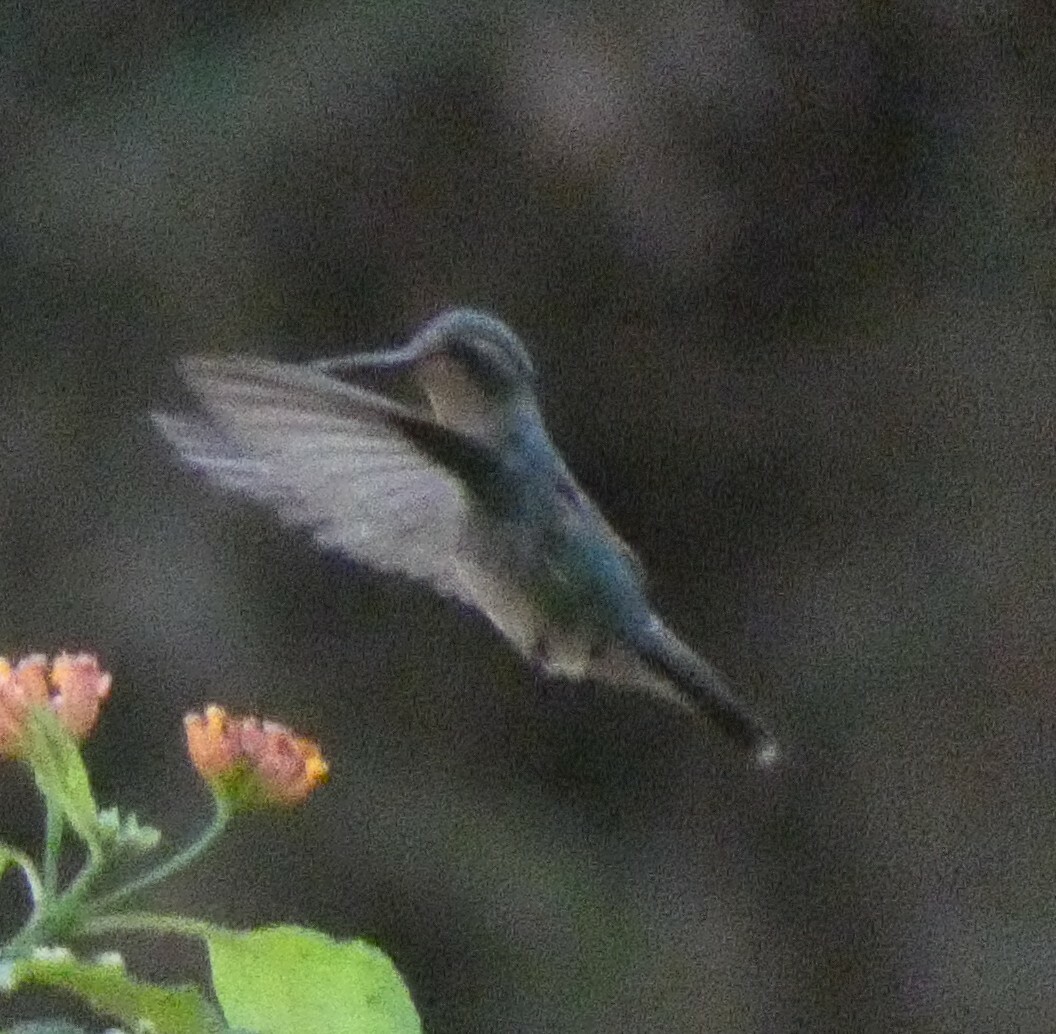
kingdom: Animalia
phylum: Chordata
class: Aves
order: Apodiformes
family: Trochilidae
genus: Chlorostilbon
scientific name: Chlorostilbon lucidus
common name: Glittering-bellied emerald
